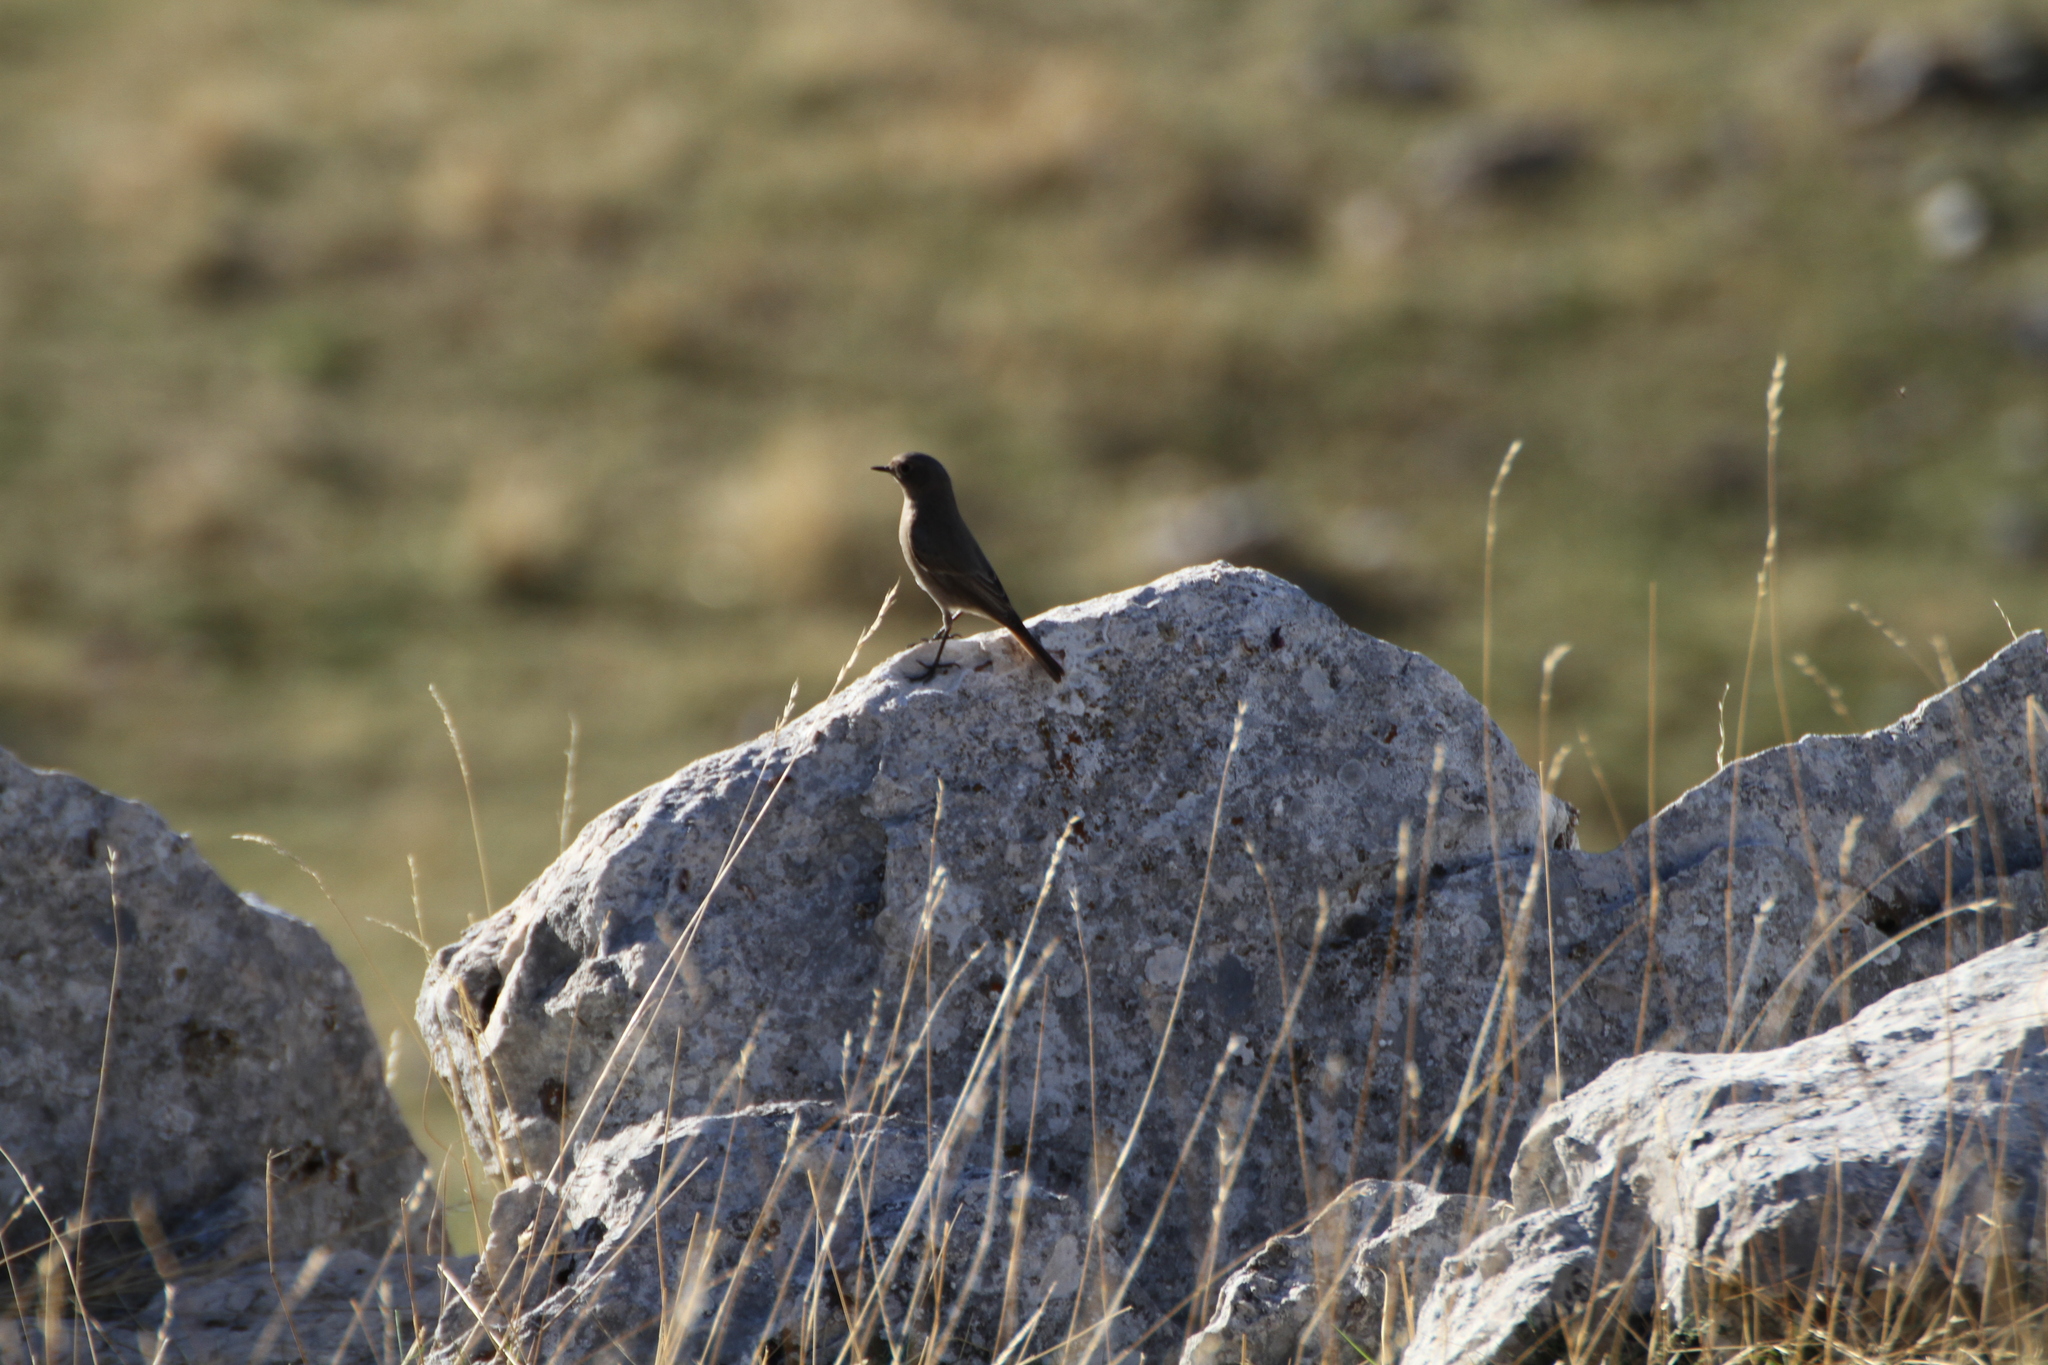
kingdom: Animalia
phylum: Chordata
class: Aves
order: Passeriformes
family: Muscicapidae
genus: Phoenicurus
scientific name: Phoenicurus ochruros
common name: Black redstart
